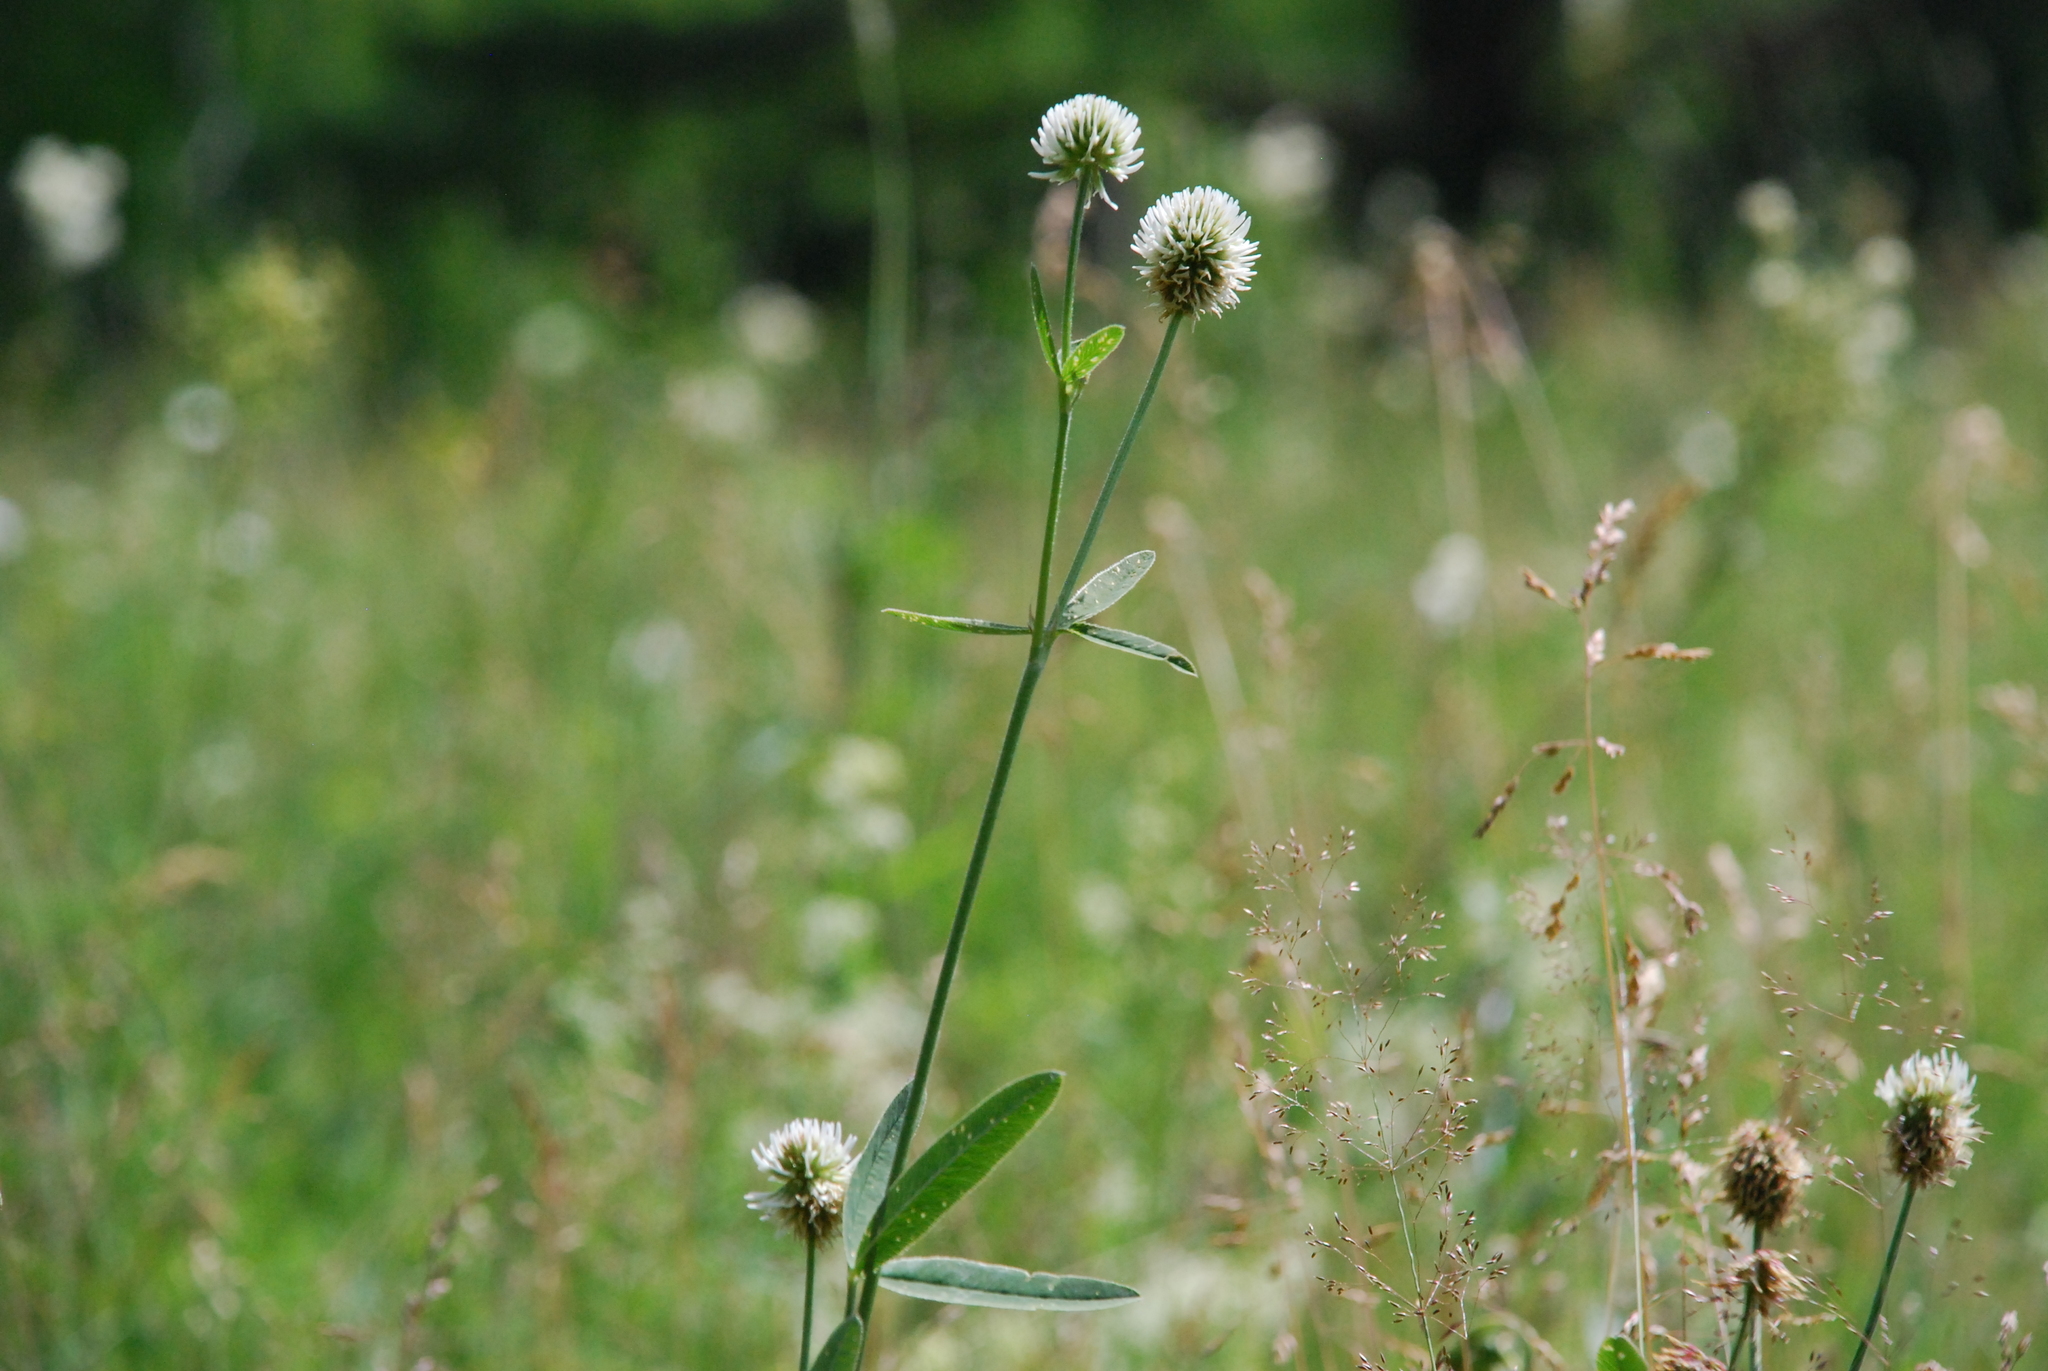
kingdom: Plantae
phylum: Tracheophyta
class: Magnoliopsida
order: Fabales
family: Fabaceae
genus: Trifolium
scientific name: Trifolium montanum
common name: Mountain clover
